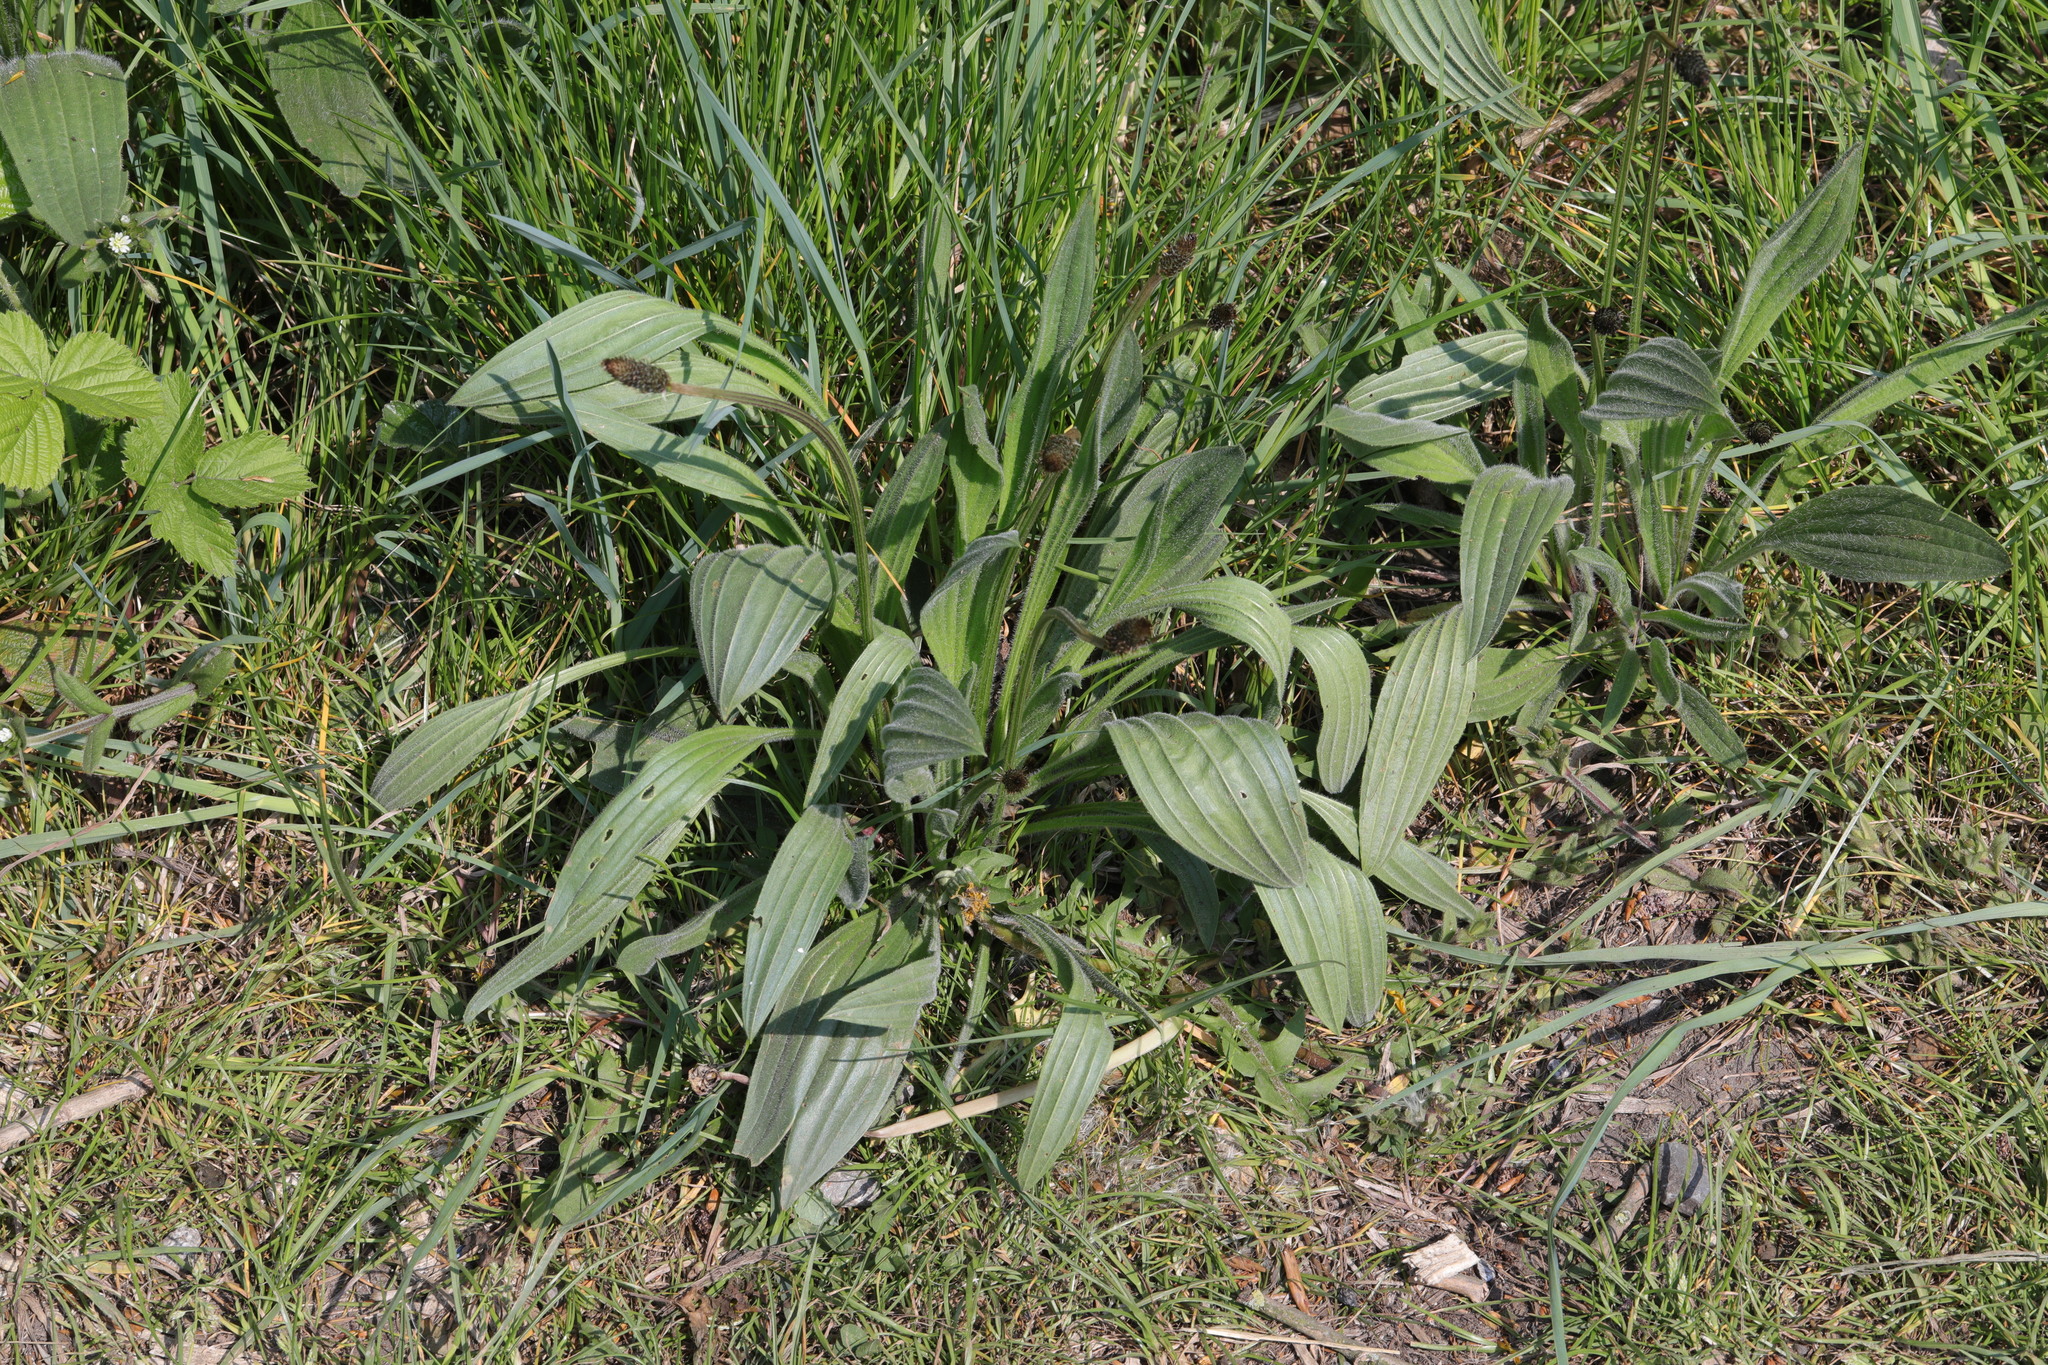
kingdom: Plantae
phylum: Tracheophyta
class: Magnoliopsida
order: Lamiales
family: Plantaginaceae
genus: Plantago
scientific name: Plantago lanceolata
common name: Ribwort plantain
